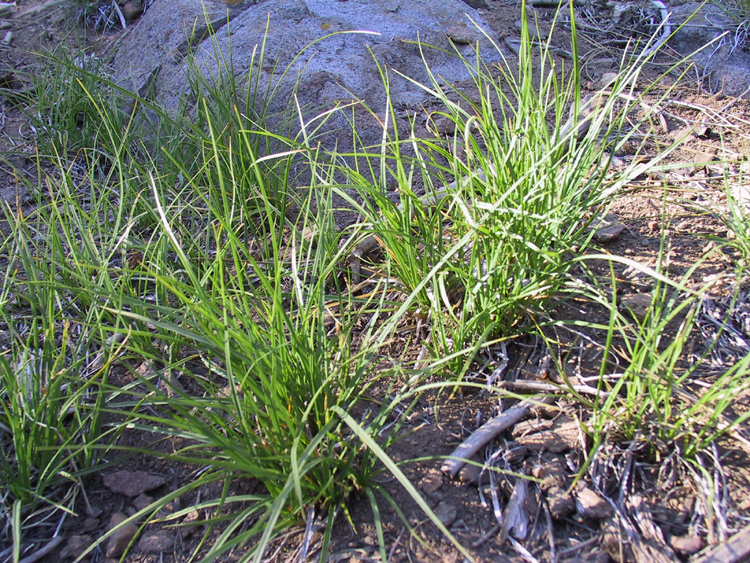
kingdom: Plantae
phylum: Tracheophyta
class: Liliopsida
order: Poales
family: Cyperaceae
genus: Carex
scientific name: Carex rossii
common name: Ross' sedge
